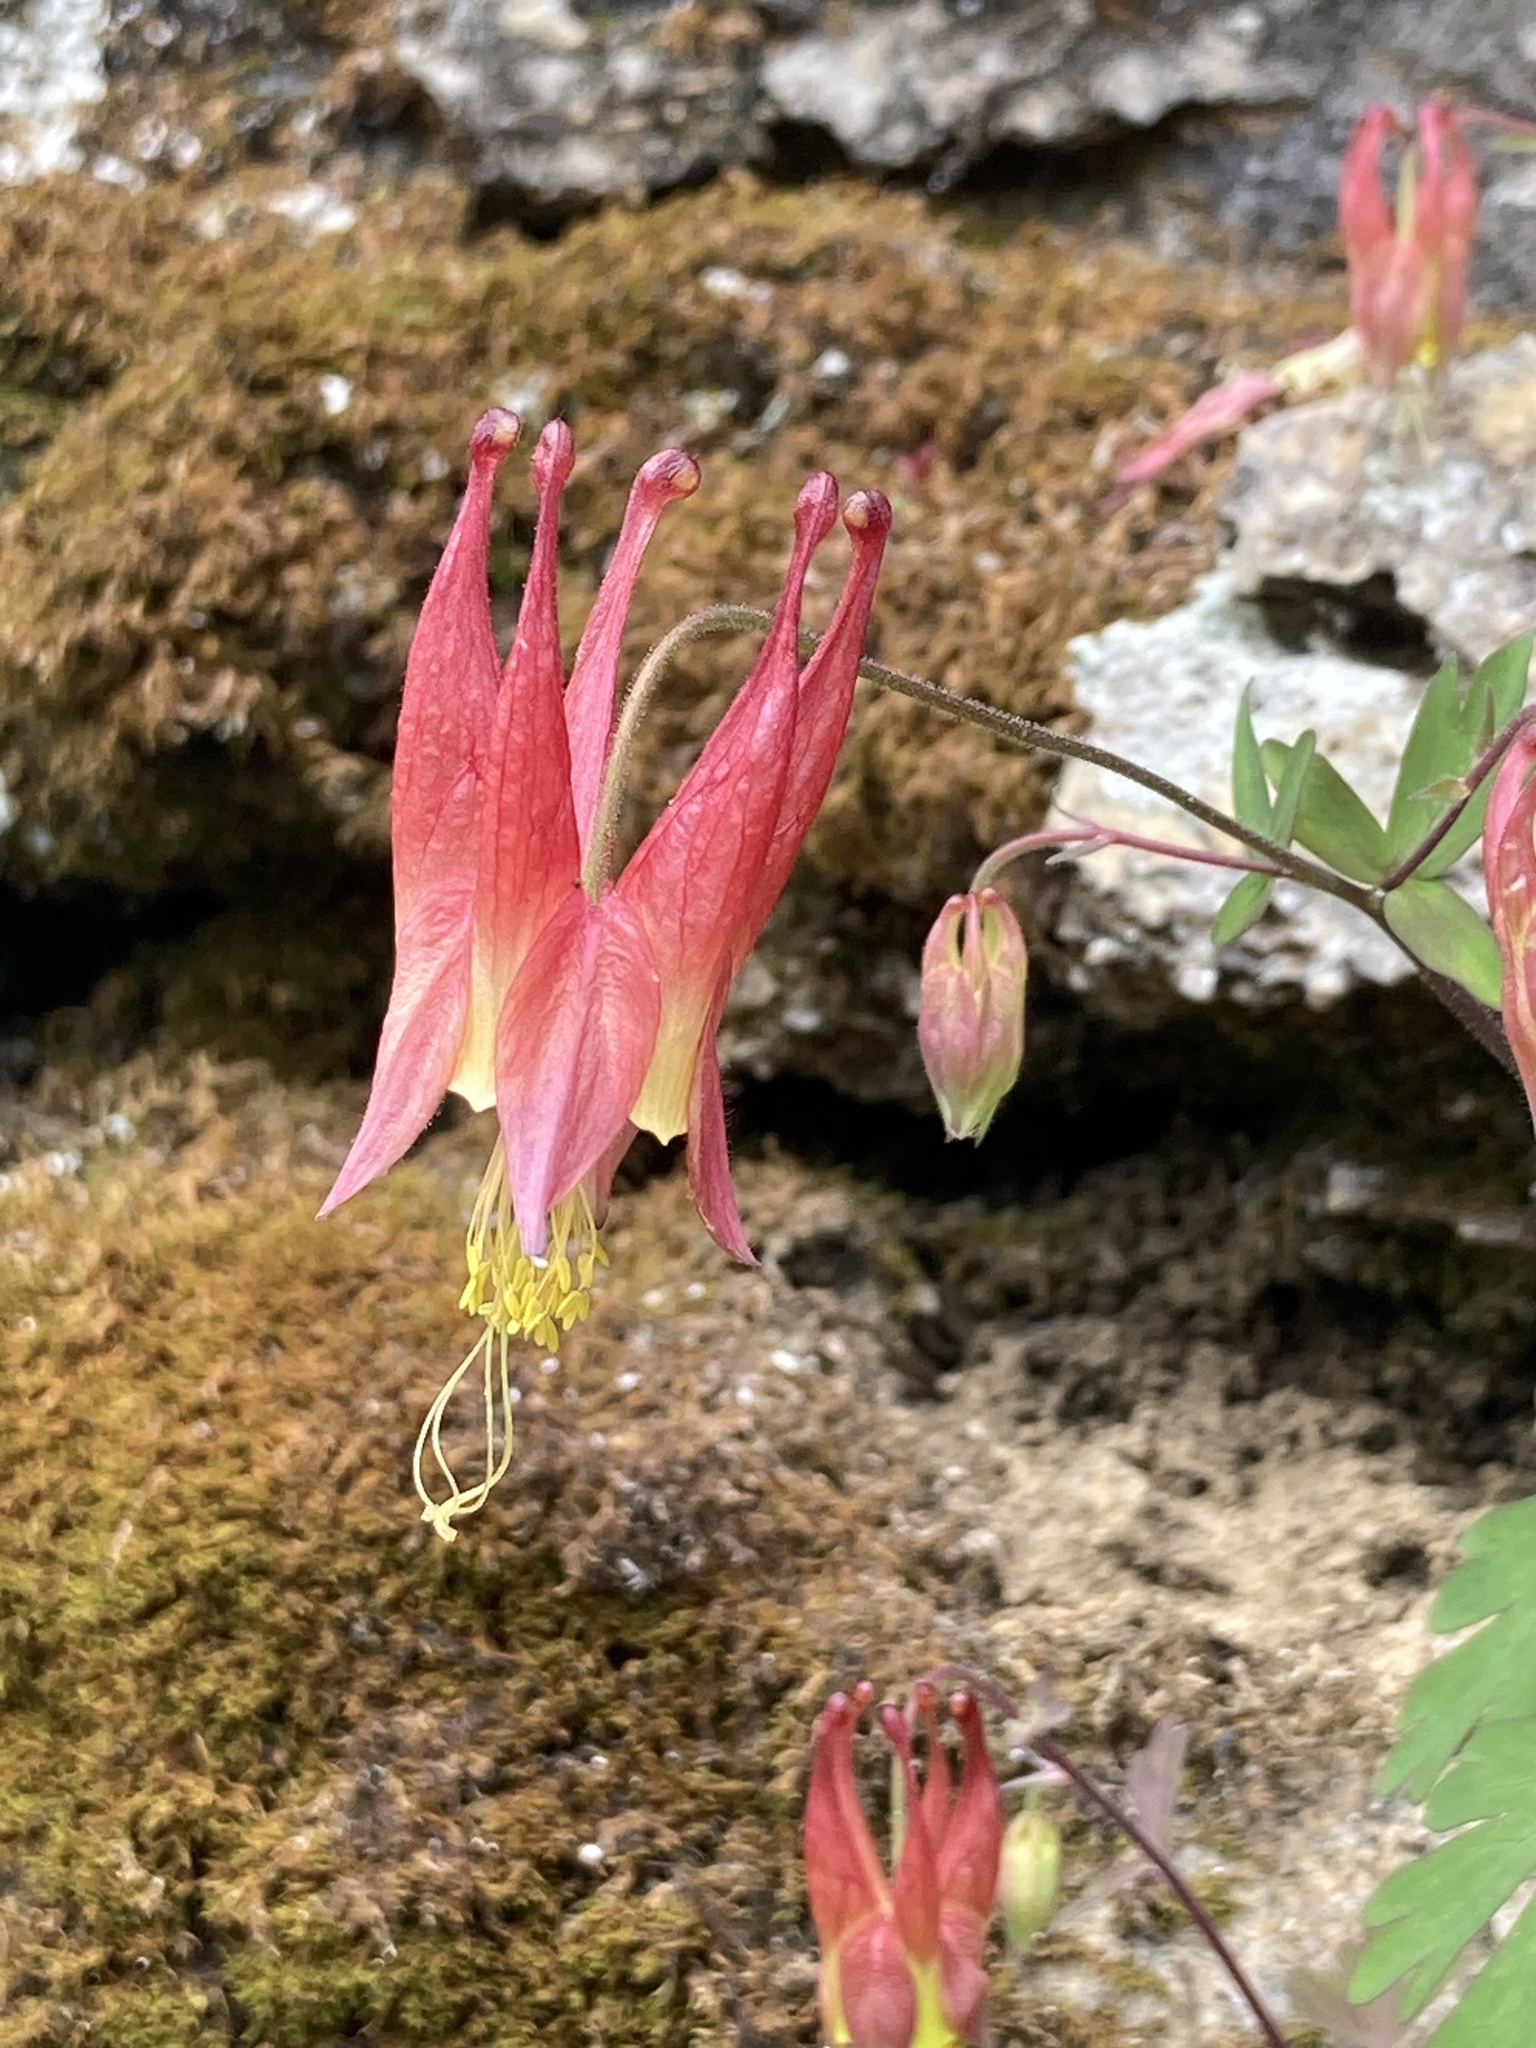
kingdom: Plantae
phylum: Tracheophyta
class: Magnoliopsida
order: Ranunculales
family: Ranunculaceae
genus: Aquilegia
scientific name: Aquilegia canadensis
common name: American columbine
